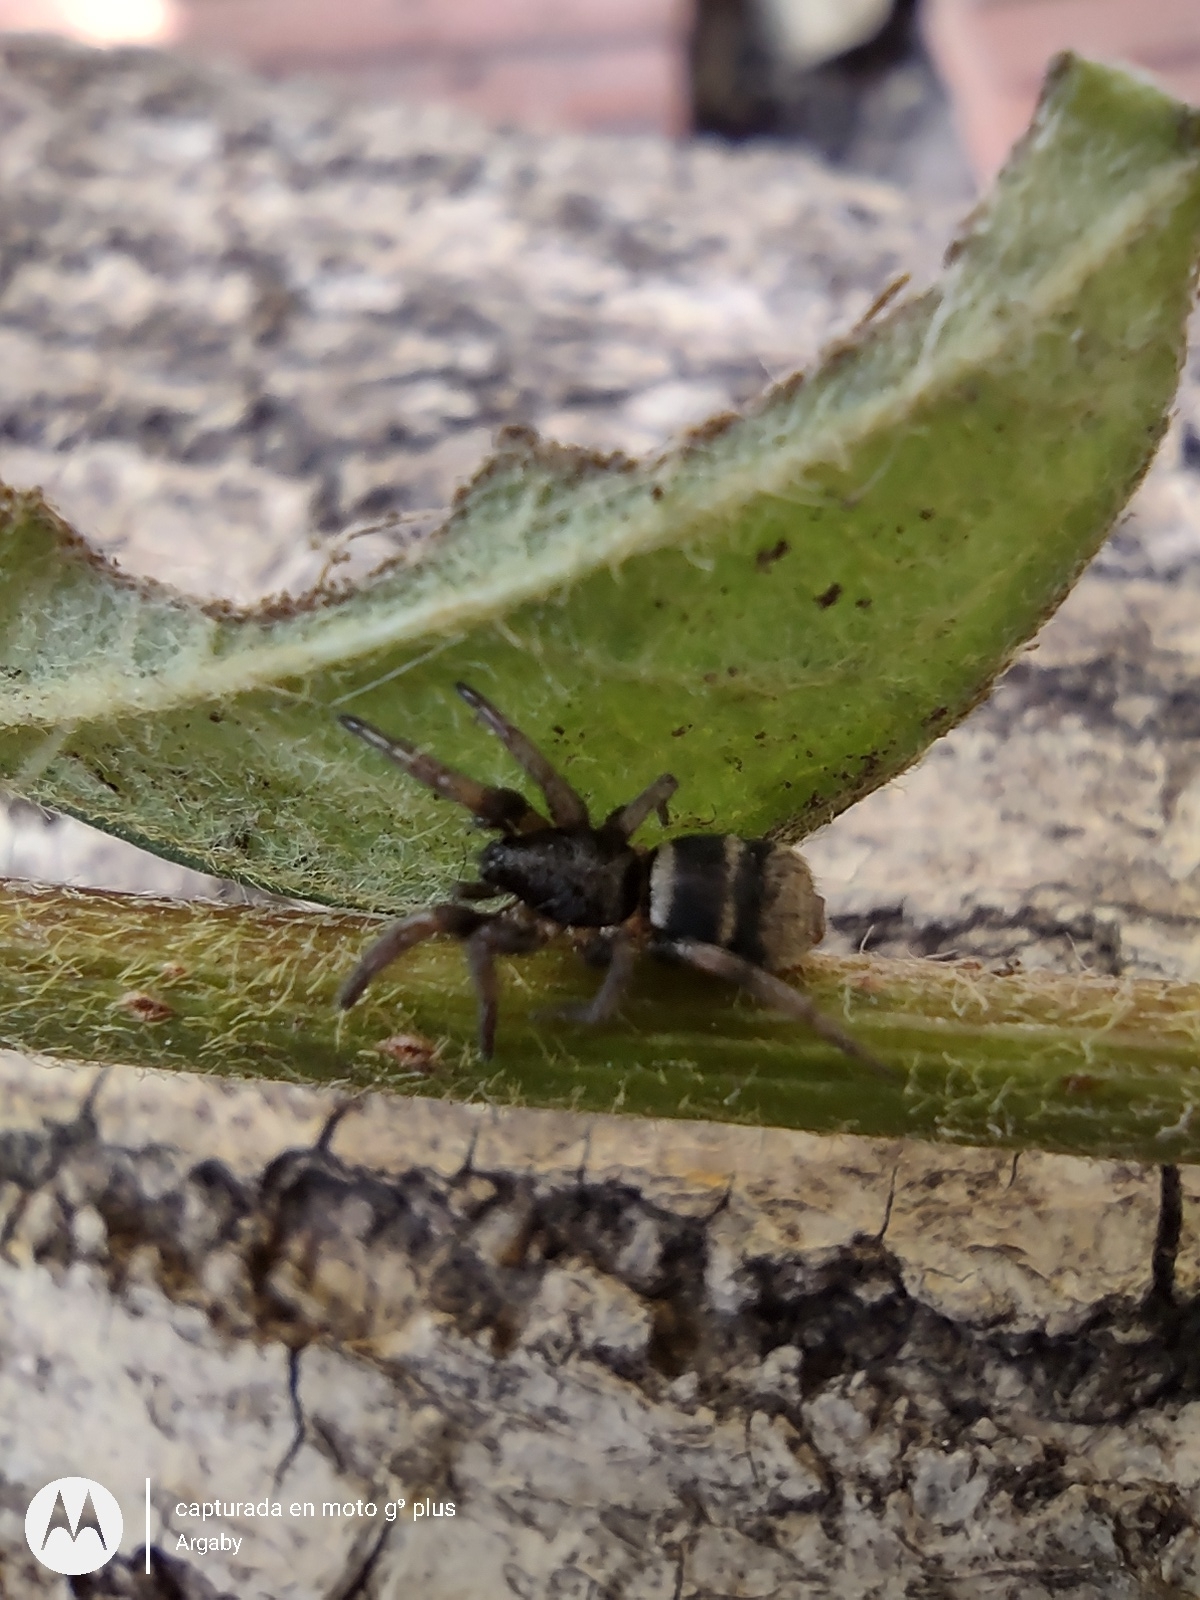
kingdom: Animalia
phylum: Arthropoda
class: Arachnida
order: Araneae
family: Gnaphosidae
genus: Latonigena
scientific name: Latonigena auricomis
